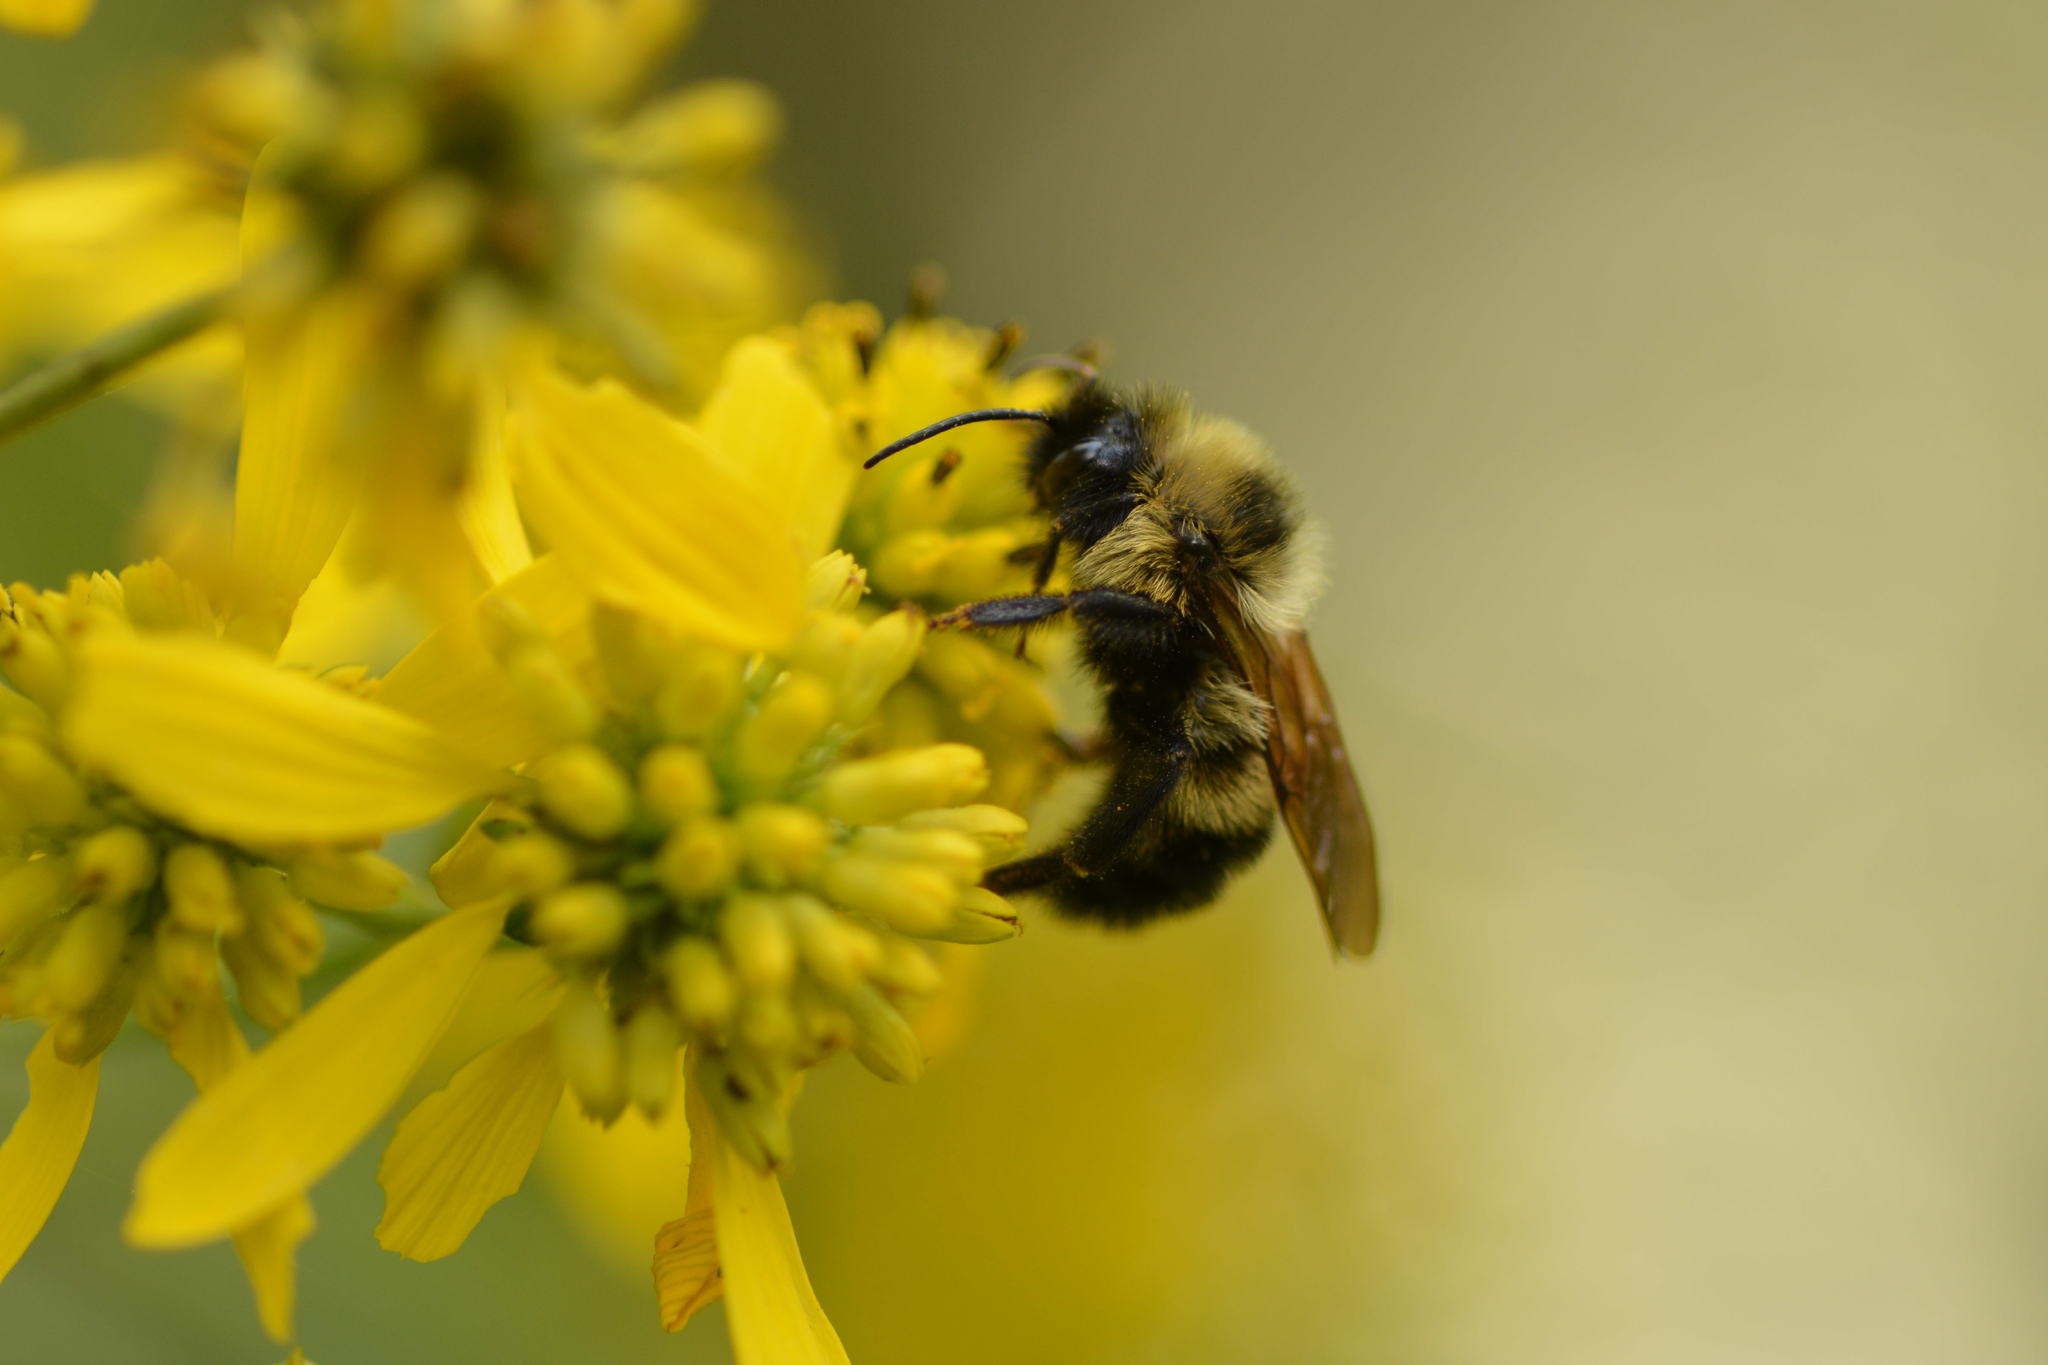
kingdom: Animalia
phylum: Arthropoda
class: Insecta
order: Hymenoptera
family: Apidae
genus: Bombus
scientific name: Bombus citrinus
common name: Lemon cuckoo bumble bee
